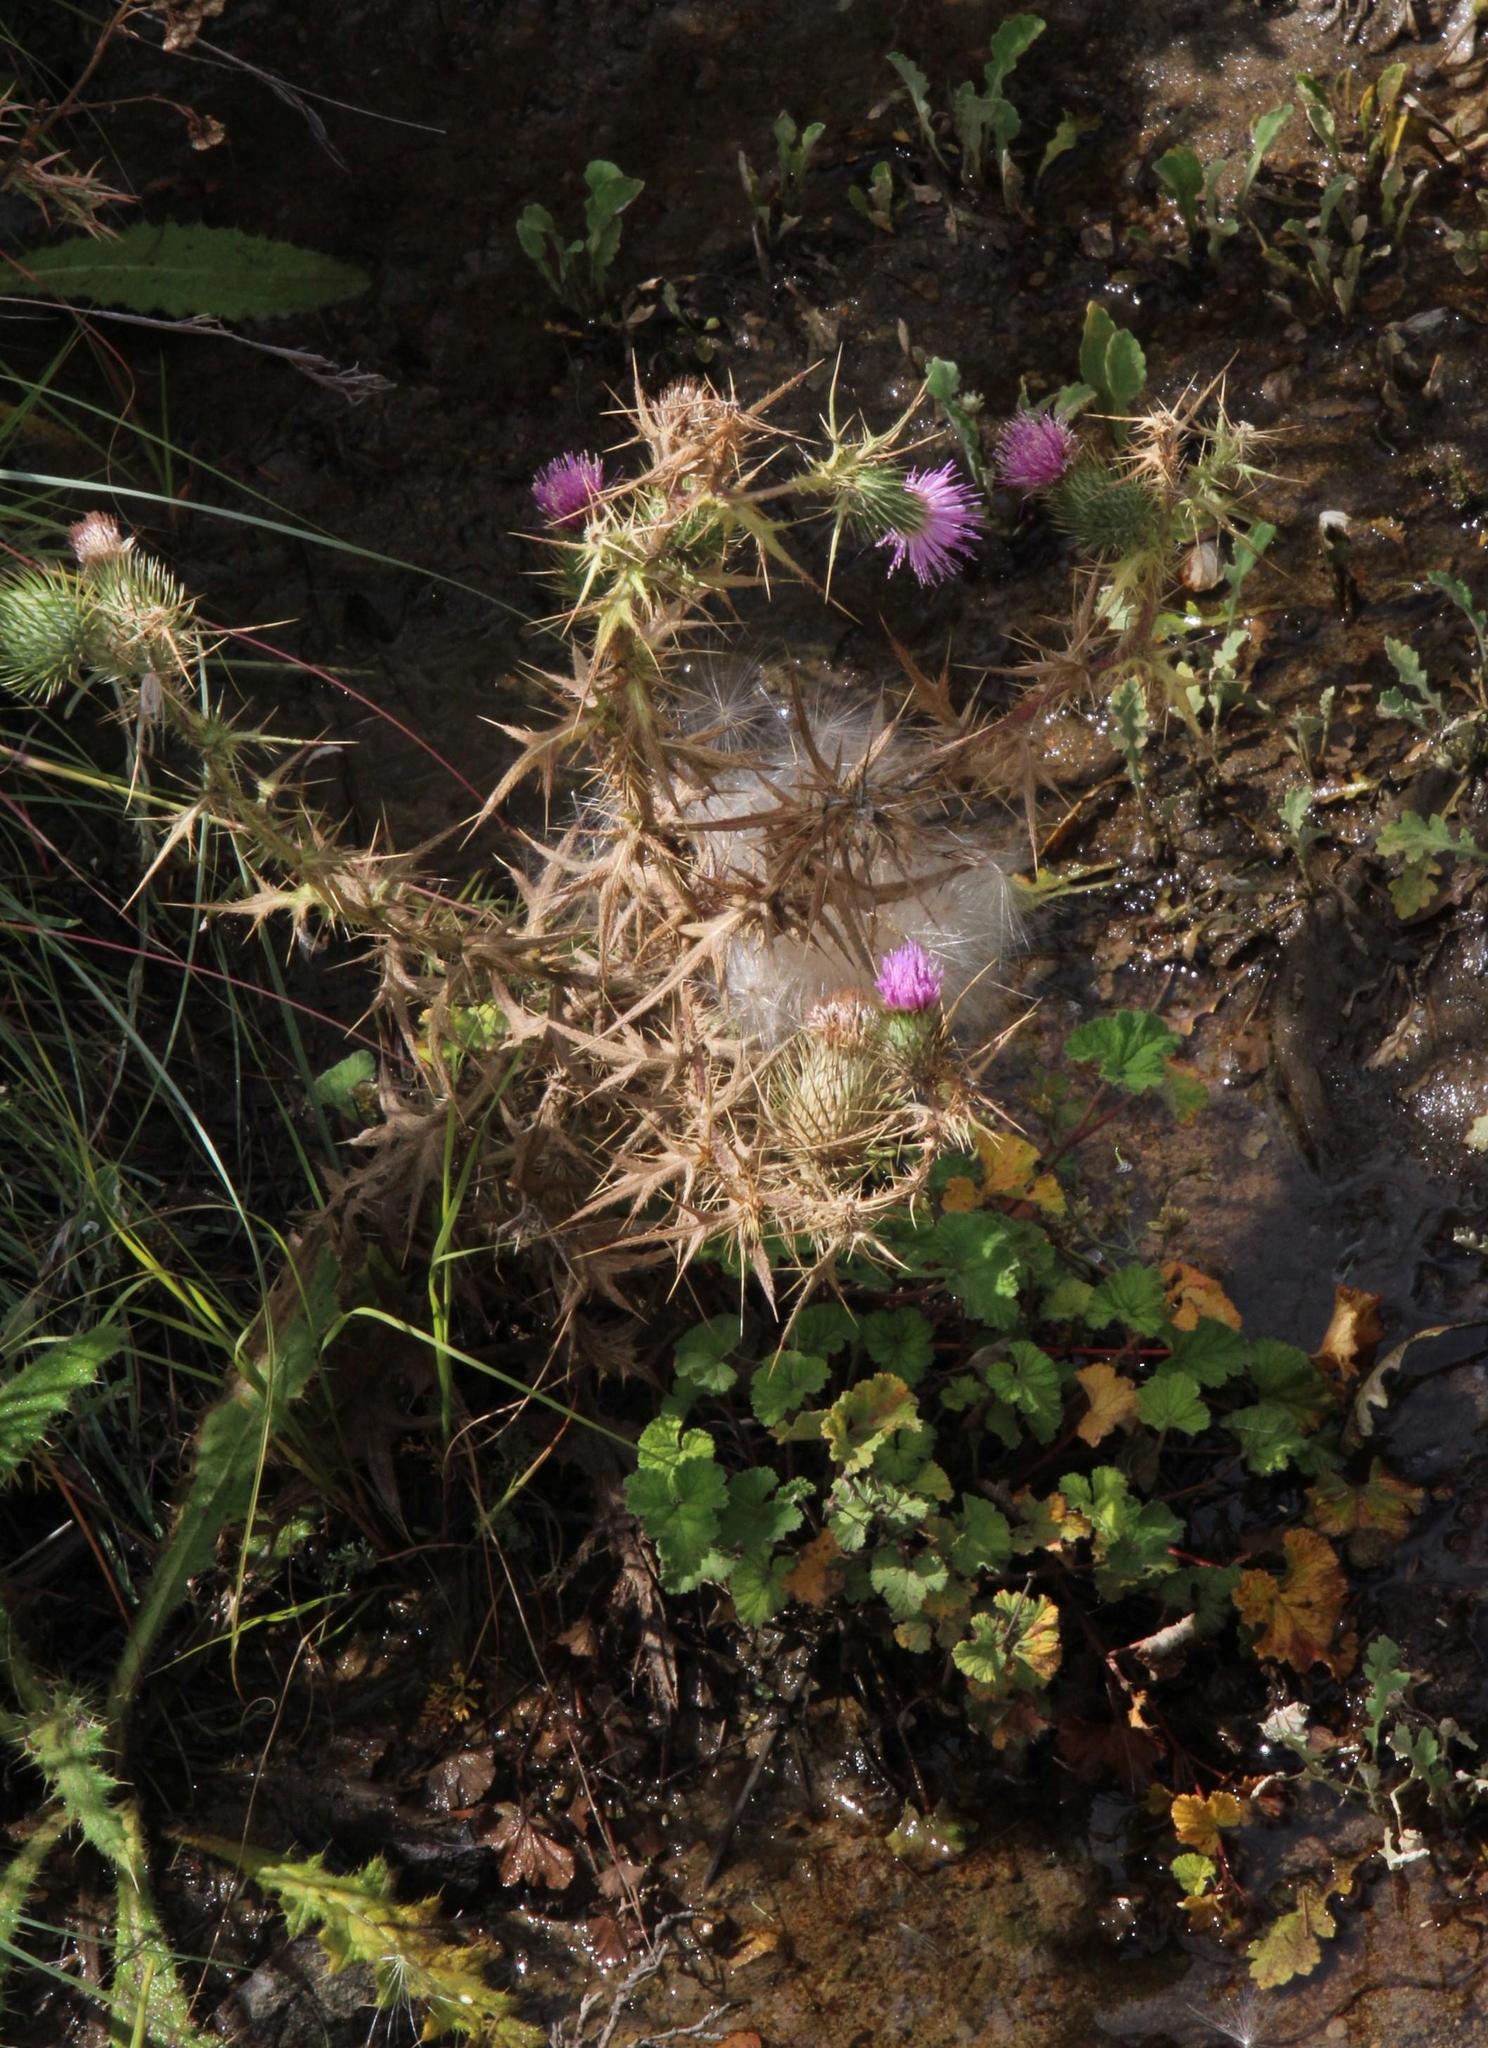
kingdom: Plantae
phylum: Tracheophyta
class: Magnoliopsida
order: Asterales
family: Asteraceae
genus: Cirsium
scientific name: Cirsium vulgare
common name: Bull thistle
